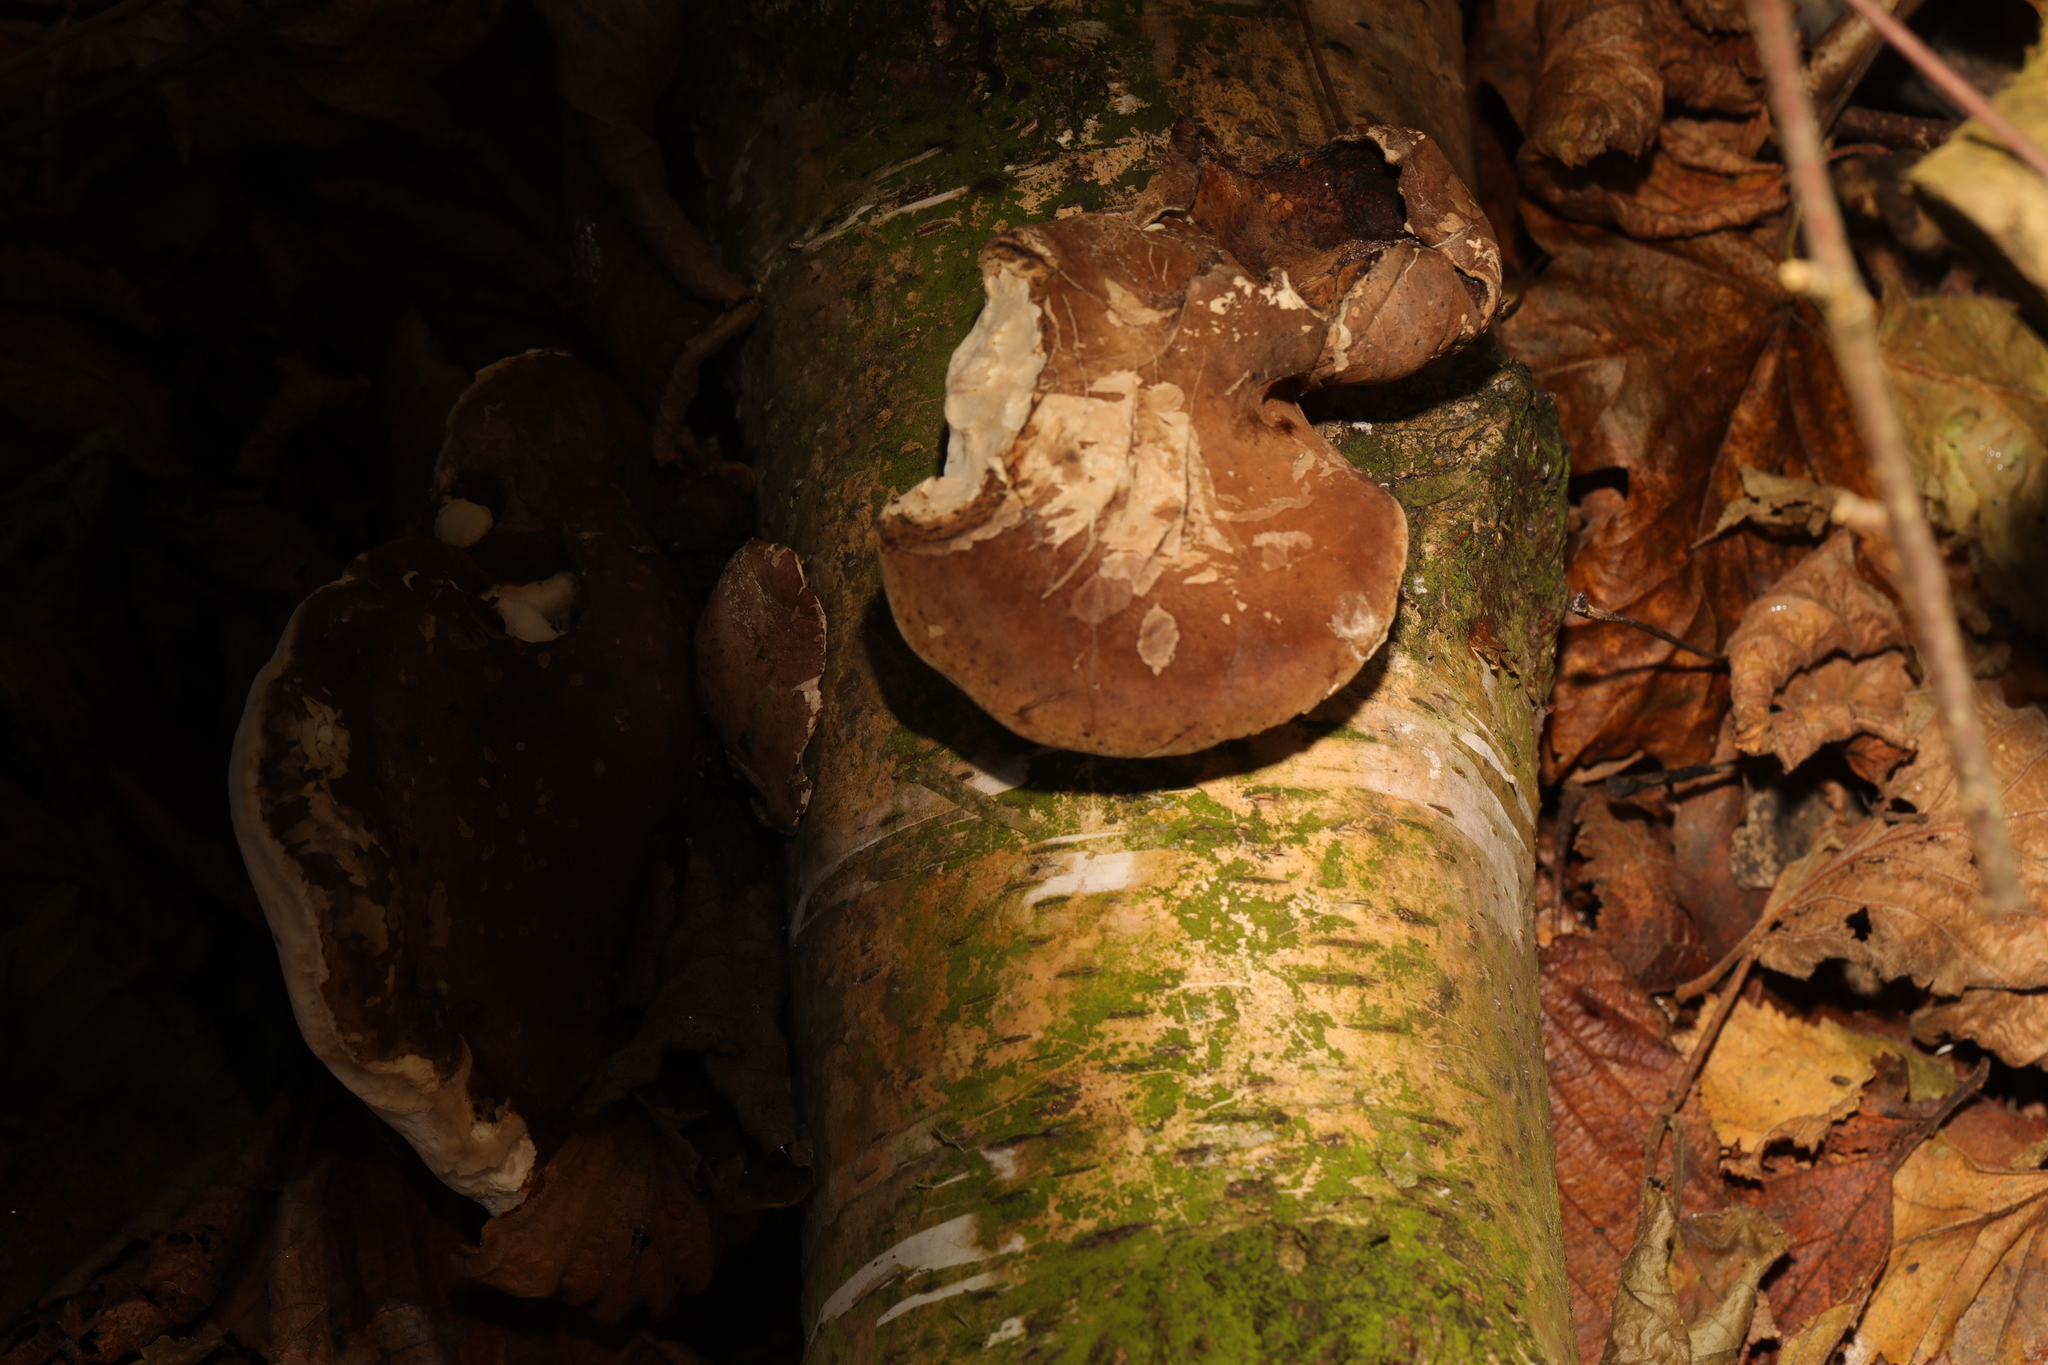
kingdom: Fungi
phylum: Basidiomycota
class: Agaricomycetes
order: Polyporales
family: Fomitopsidaceae
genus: Fomitopsis
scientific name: Fomitopsis betulina
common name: Birch polypore
